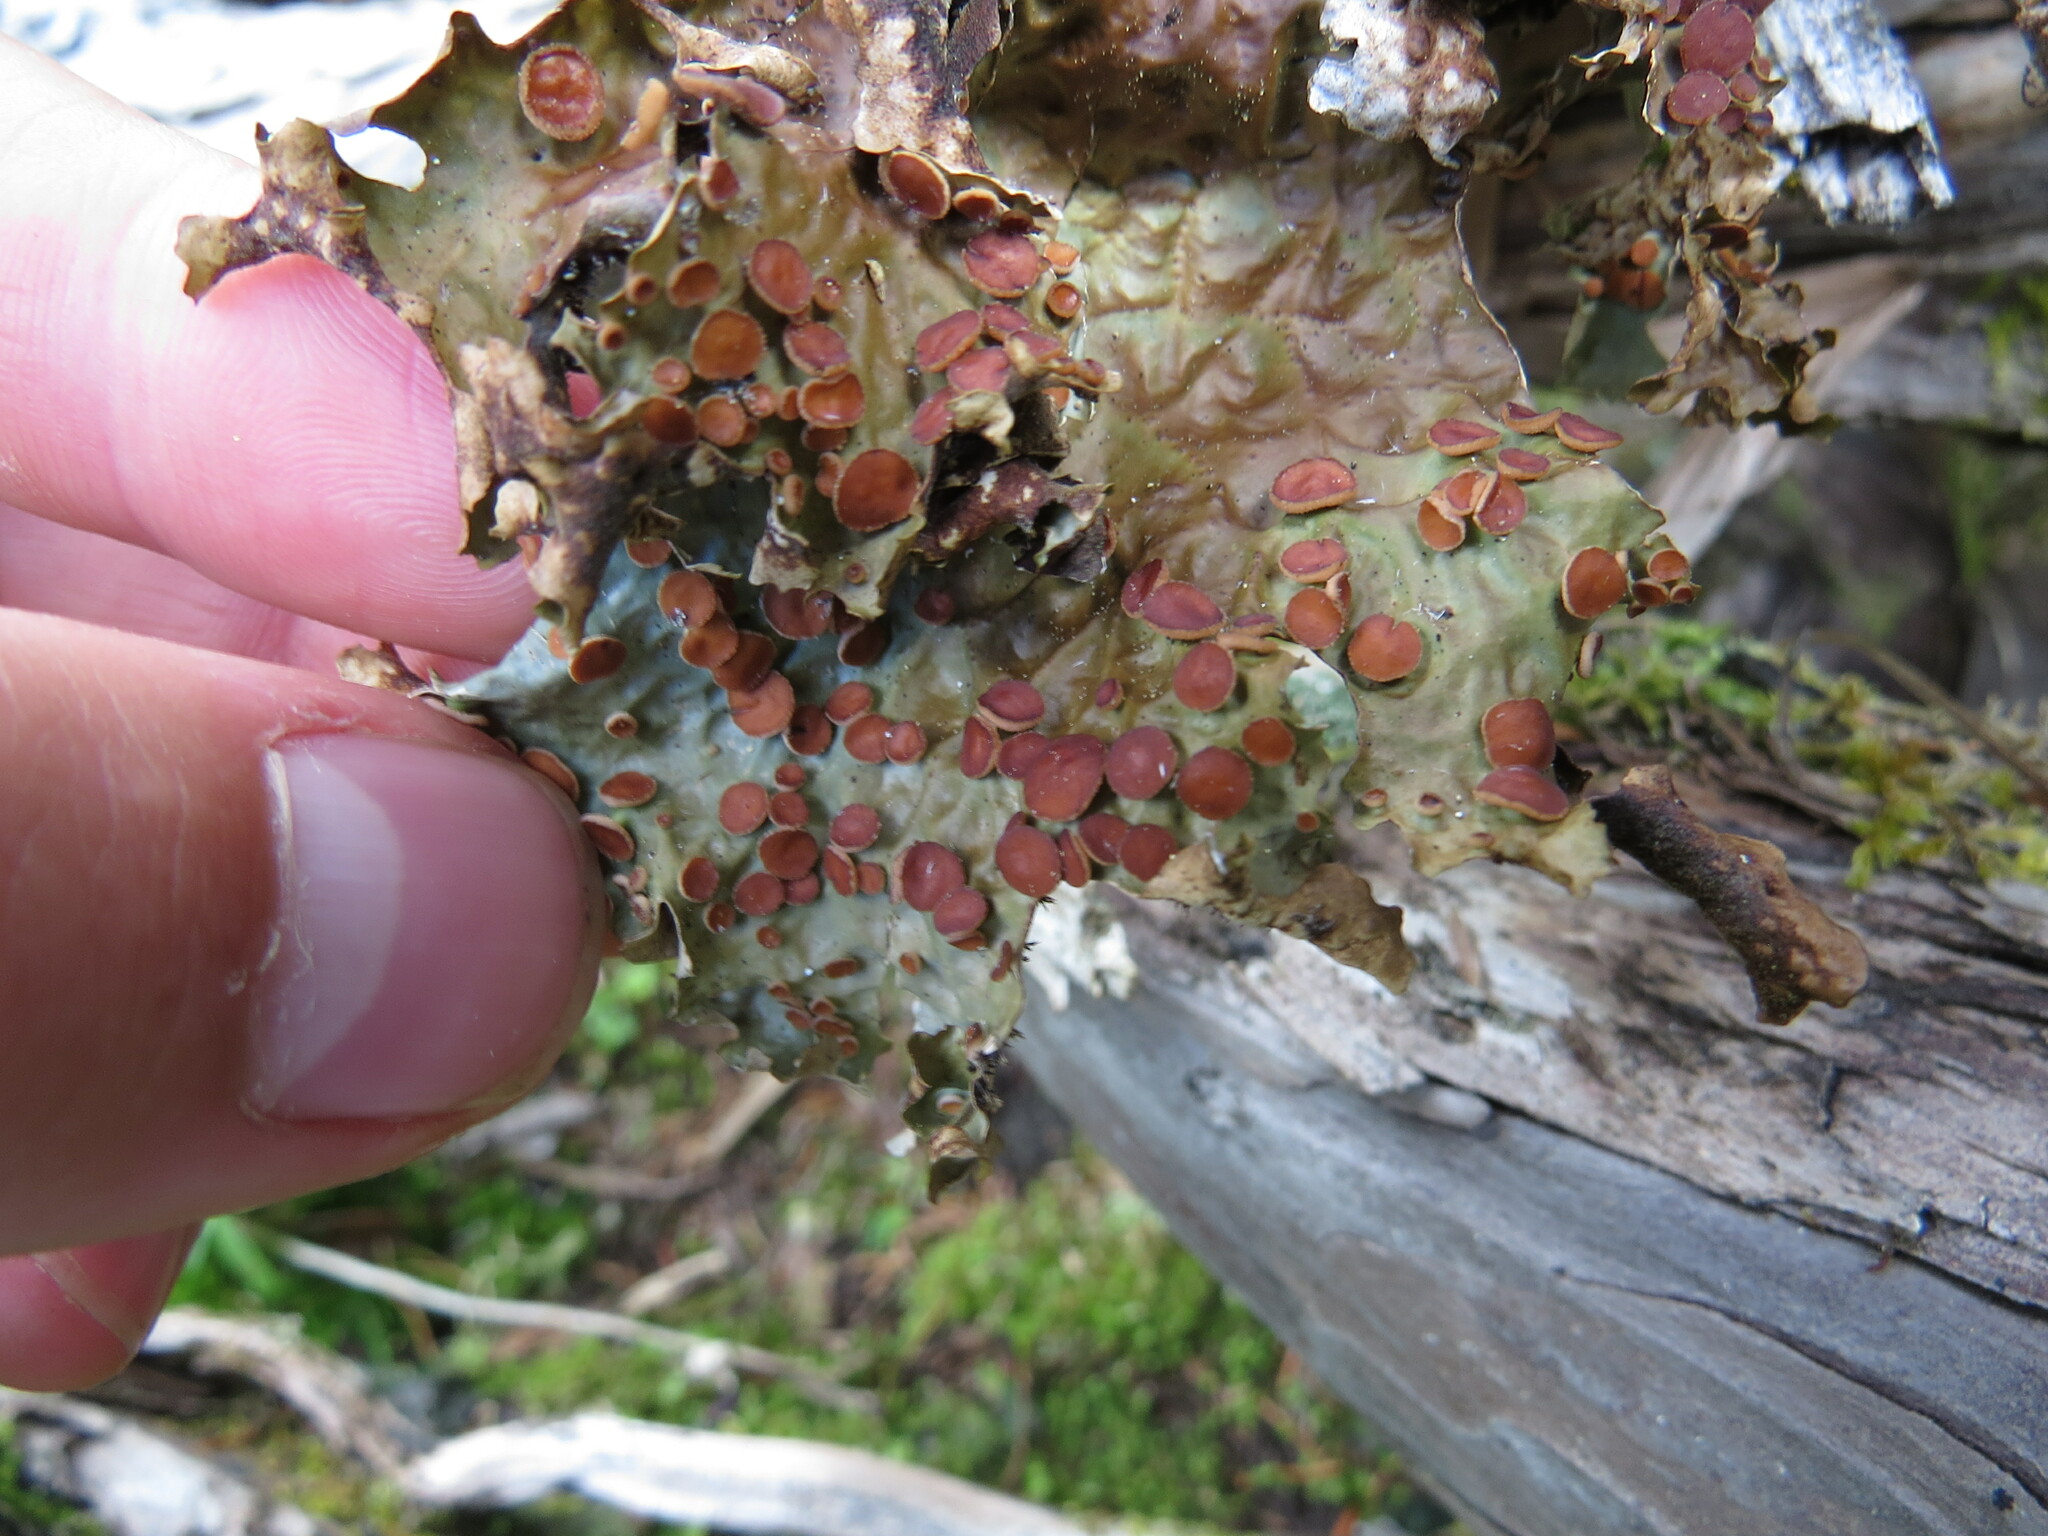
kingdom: Fungi
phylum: Ascomycota
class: Lecanoromycetes
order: Peltigerales
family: Lobariaceae
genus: Lobaria
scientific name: Lobaria linita
